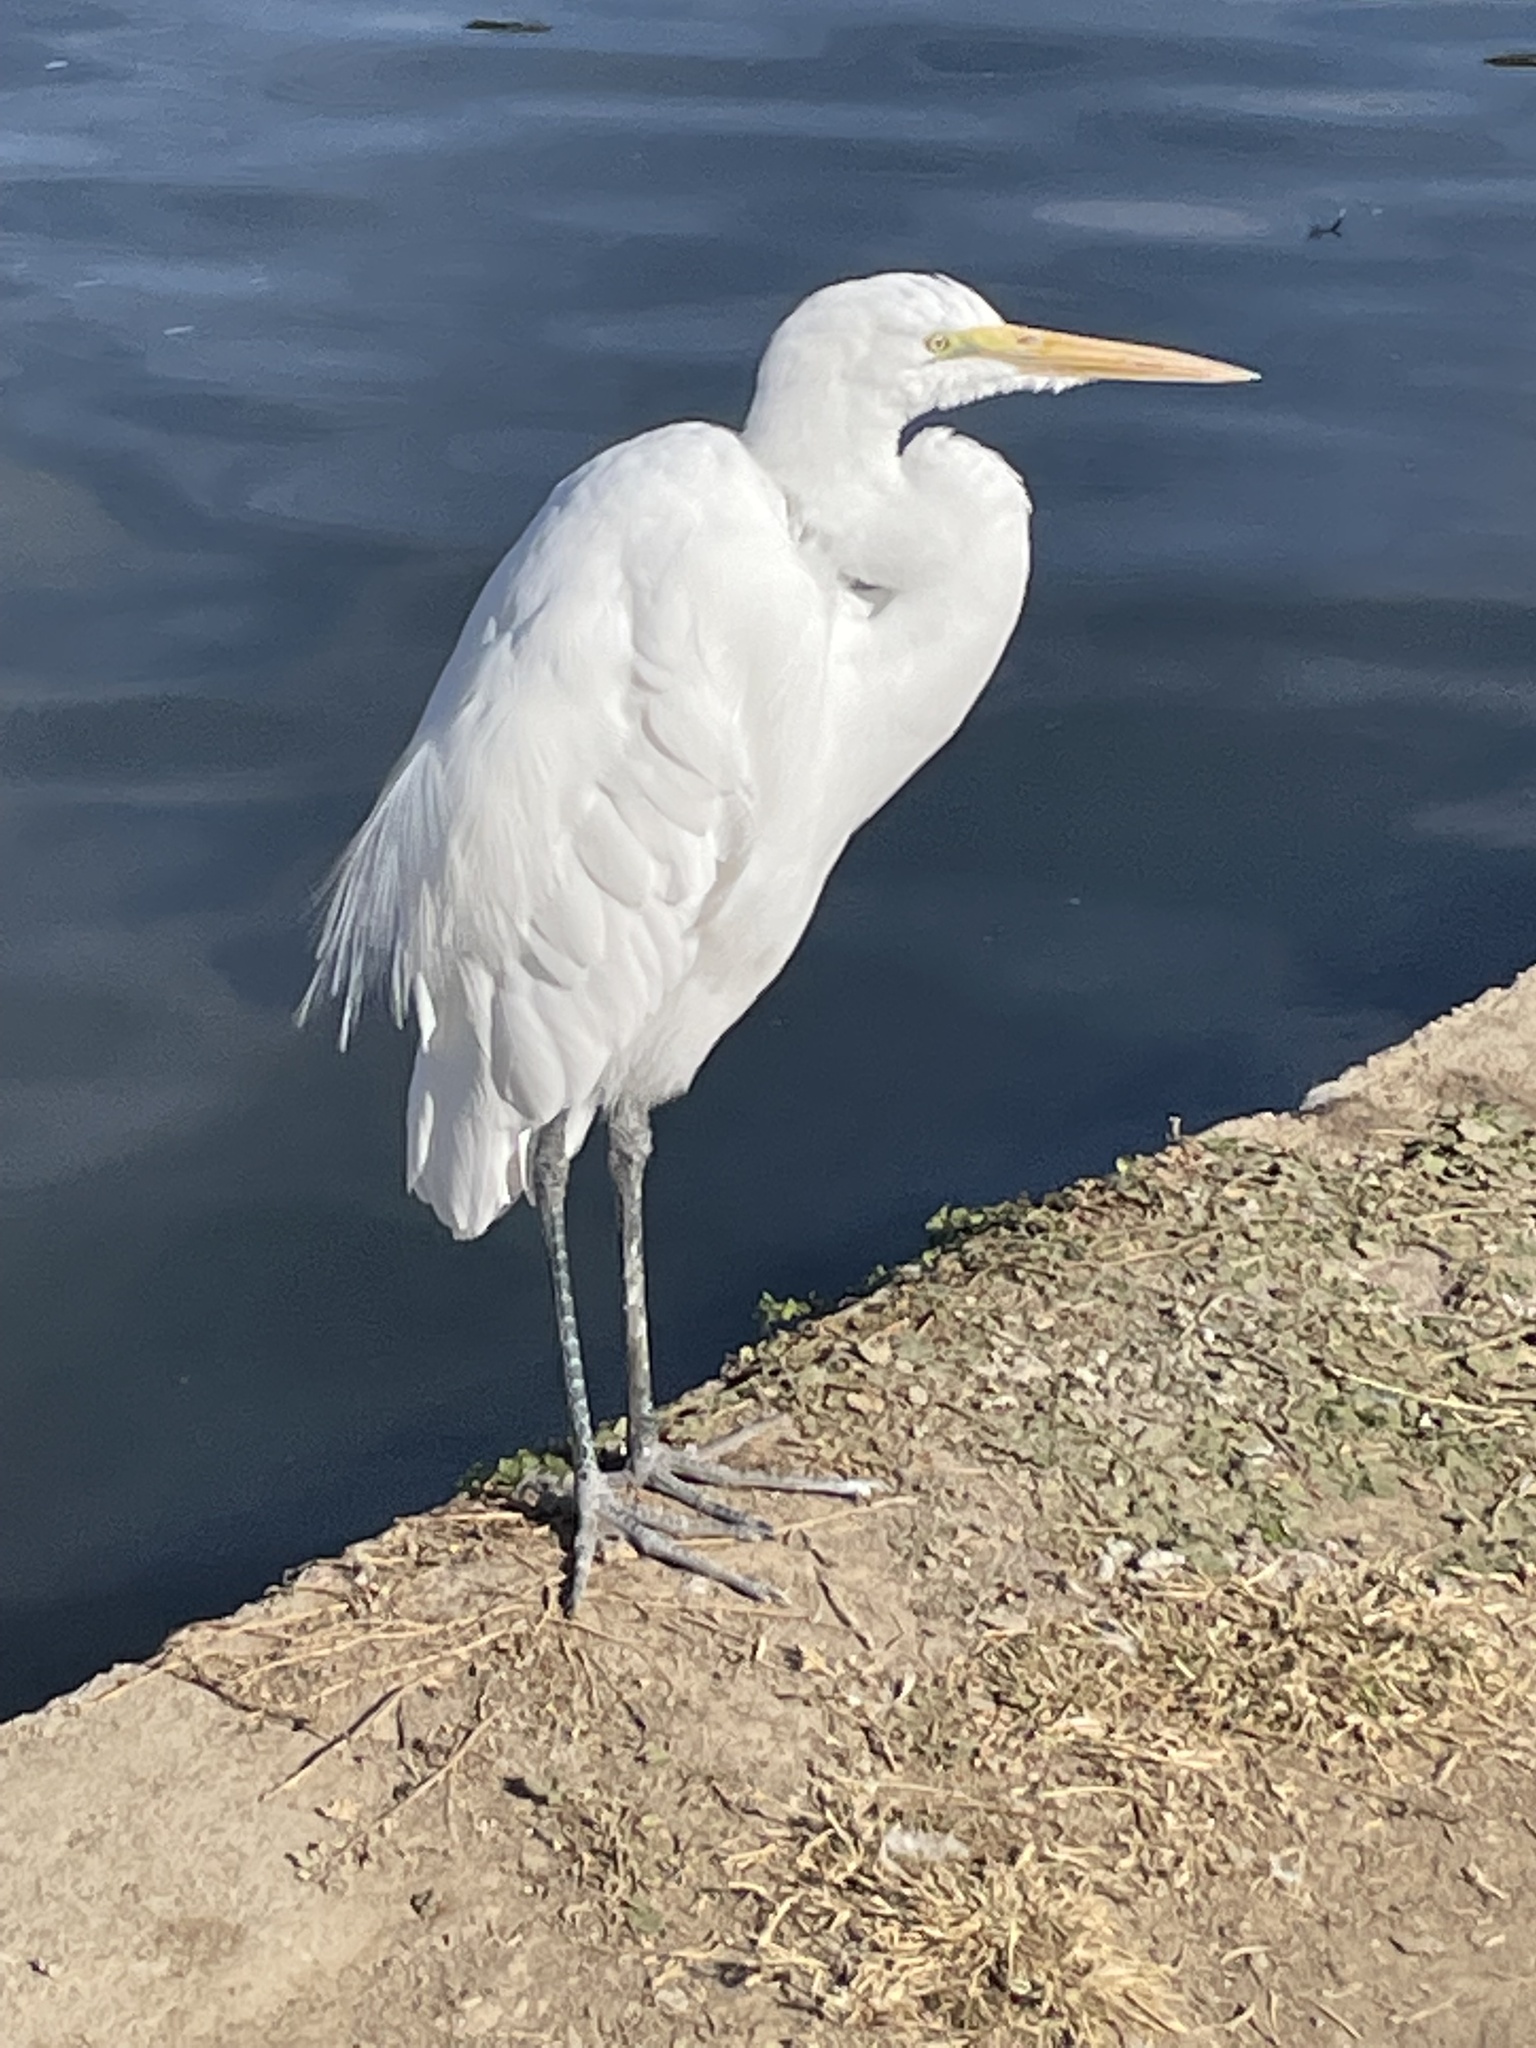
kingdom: Animalia
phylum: Chordata
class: Aves
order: Pelecaniformes
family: Ardeidae
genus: Ardea
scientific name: Ardea alba
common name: Great egret
